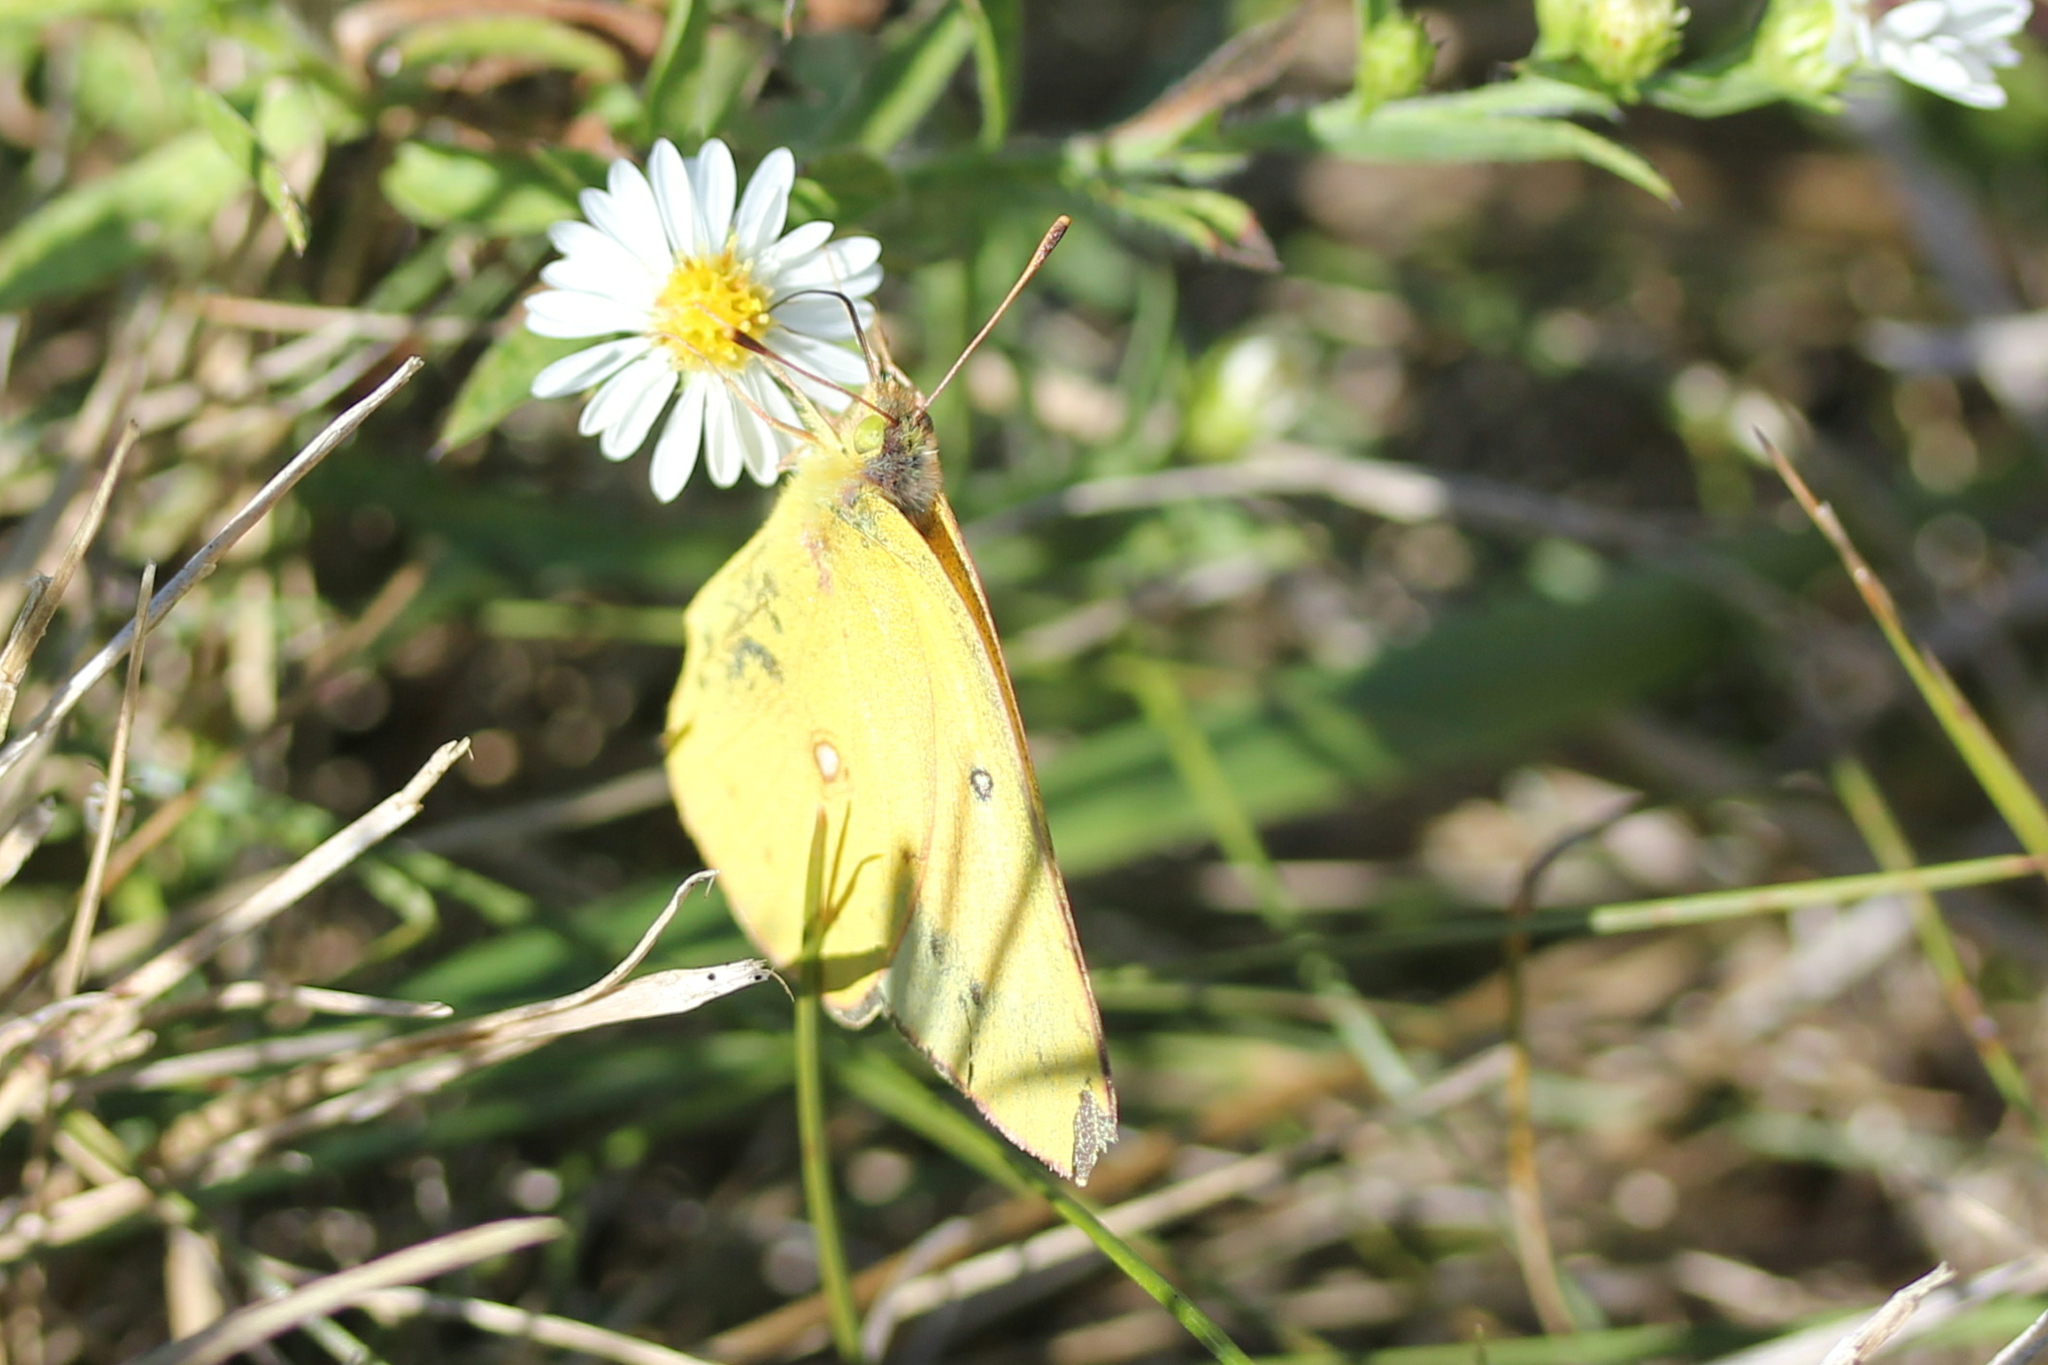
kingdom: Animalia
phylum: Arthropoda
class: Insecta
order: Lepidoptera
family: Pieridae
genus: Colias
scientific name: Colias eurytheme
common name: Alfalfa butterfly
